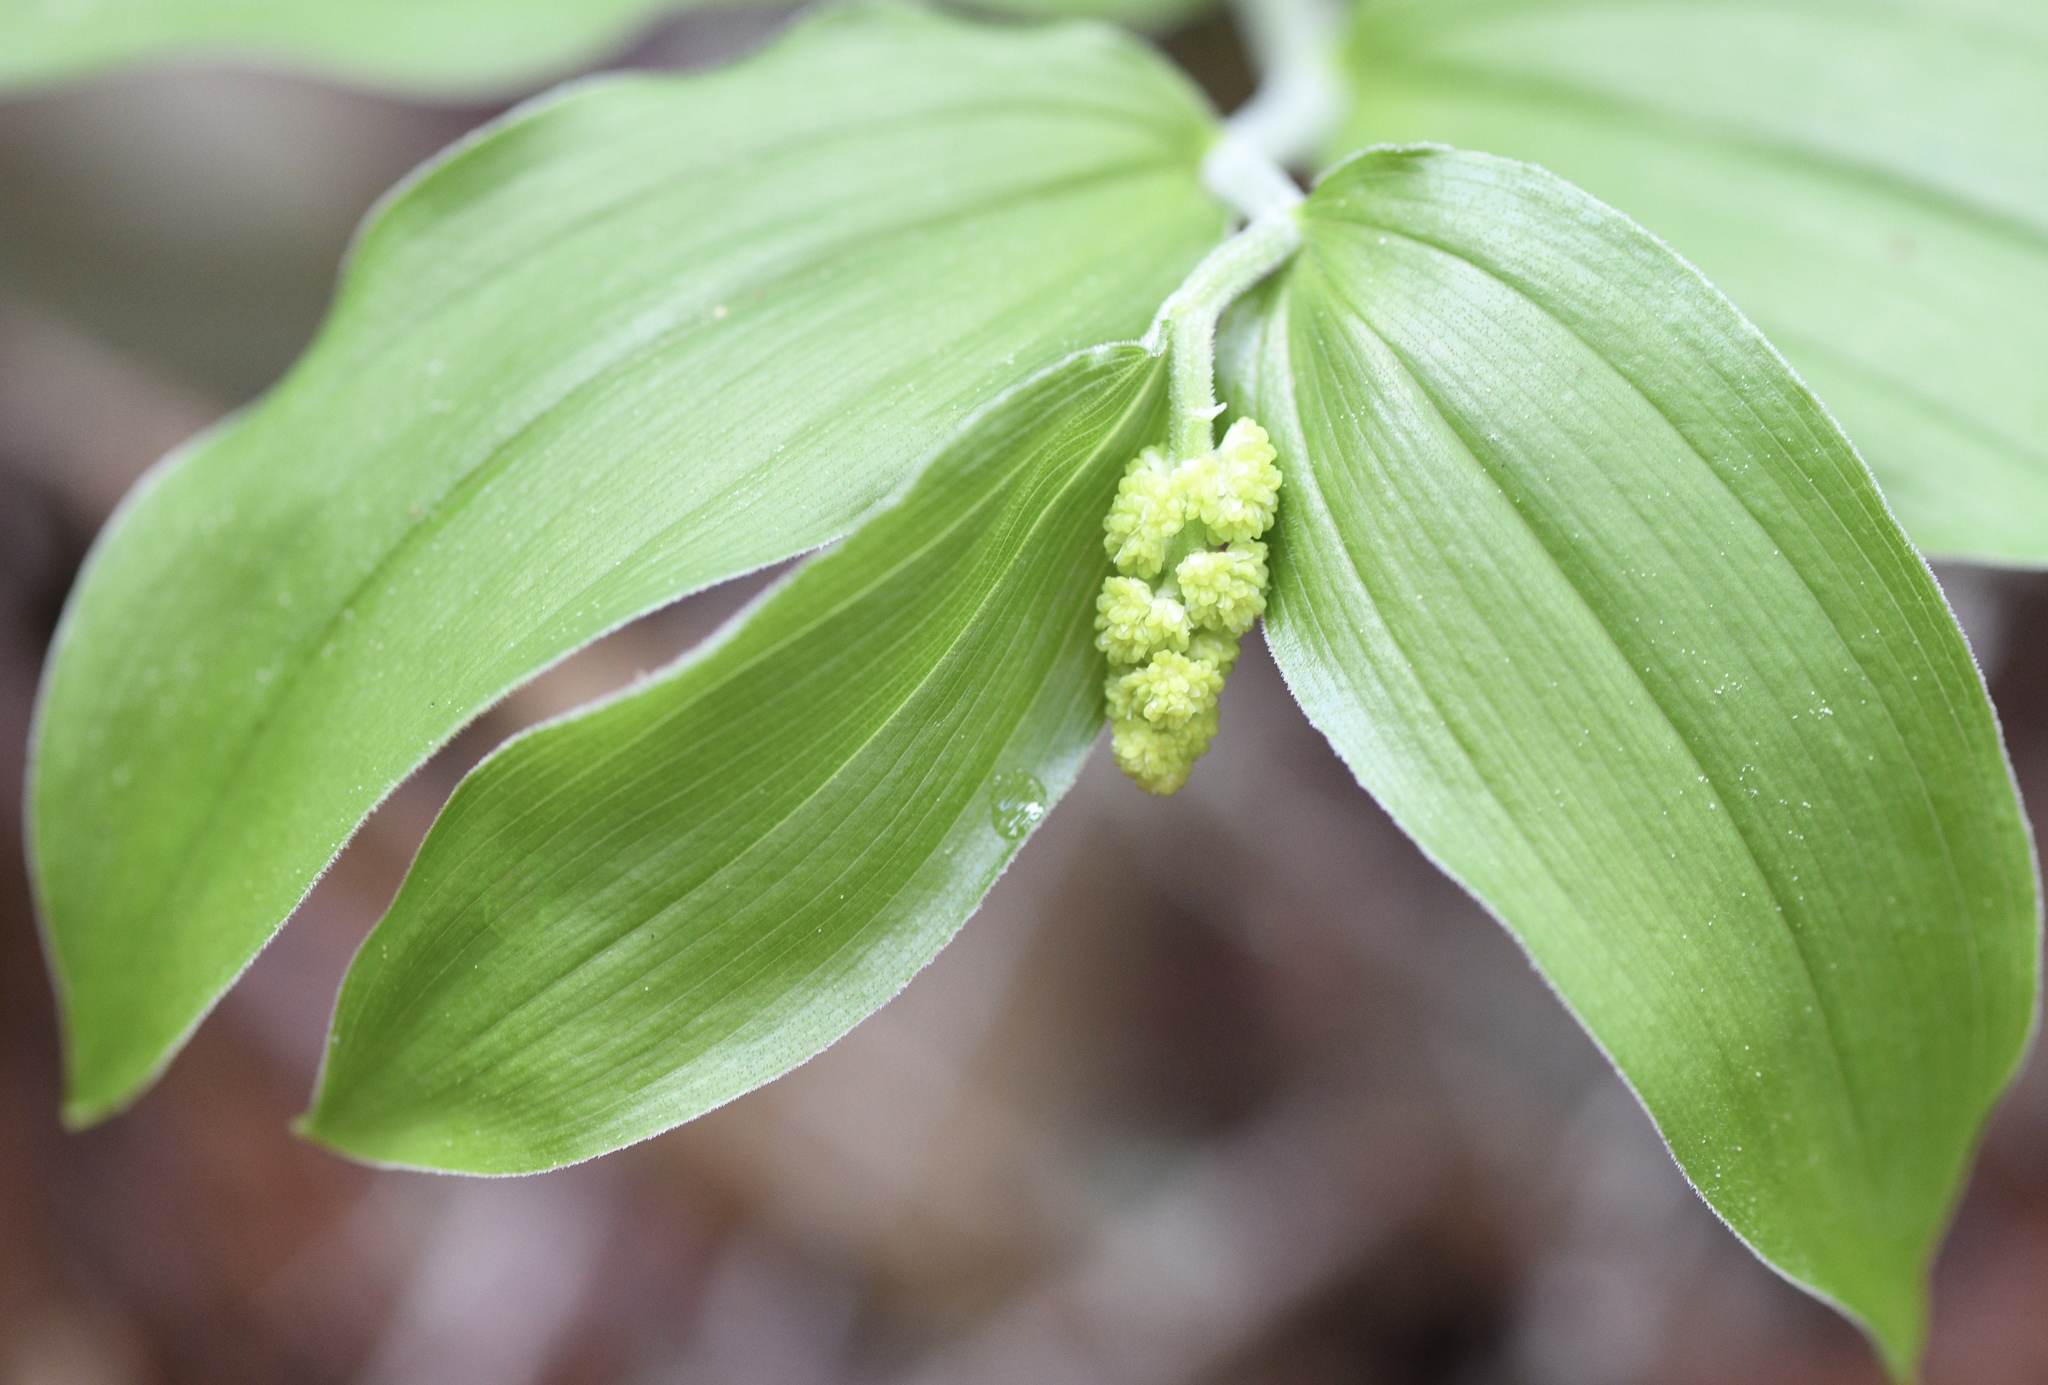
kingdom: Plantae
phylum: Tracheophyta
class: Liliopsida
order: Asparagales
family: Asparagaceae
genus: Maianthemum
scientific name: Maianthemum racemosum
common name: False spikenard
